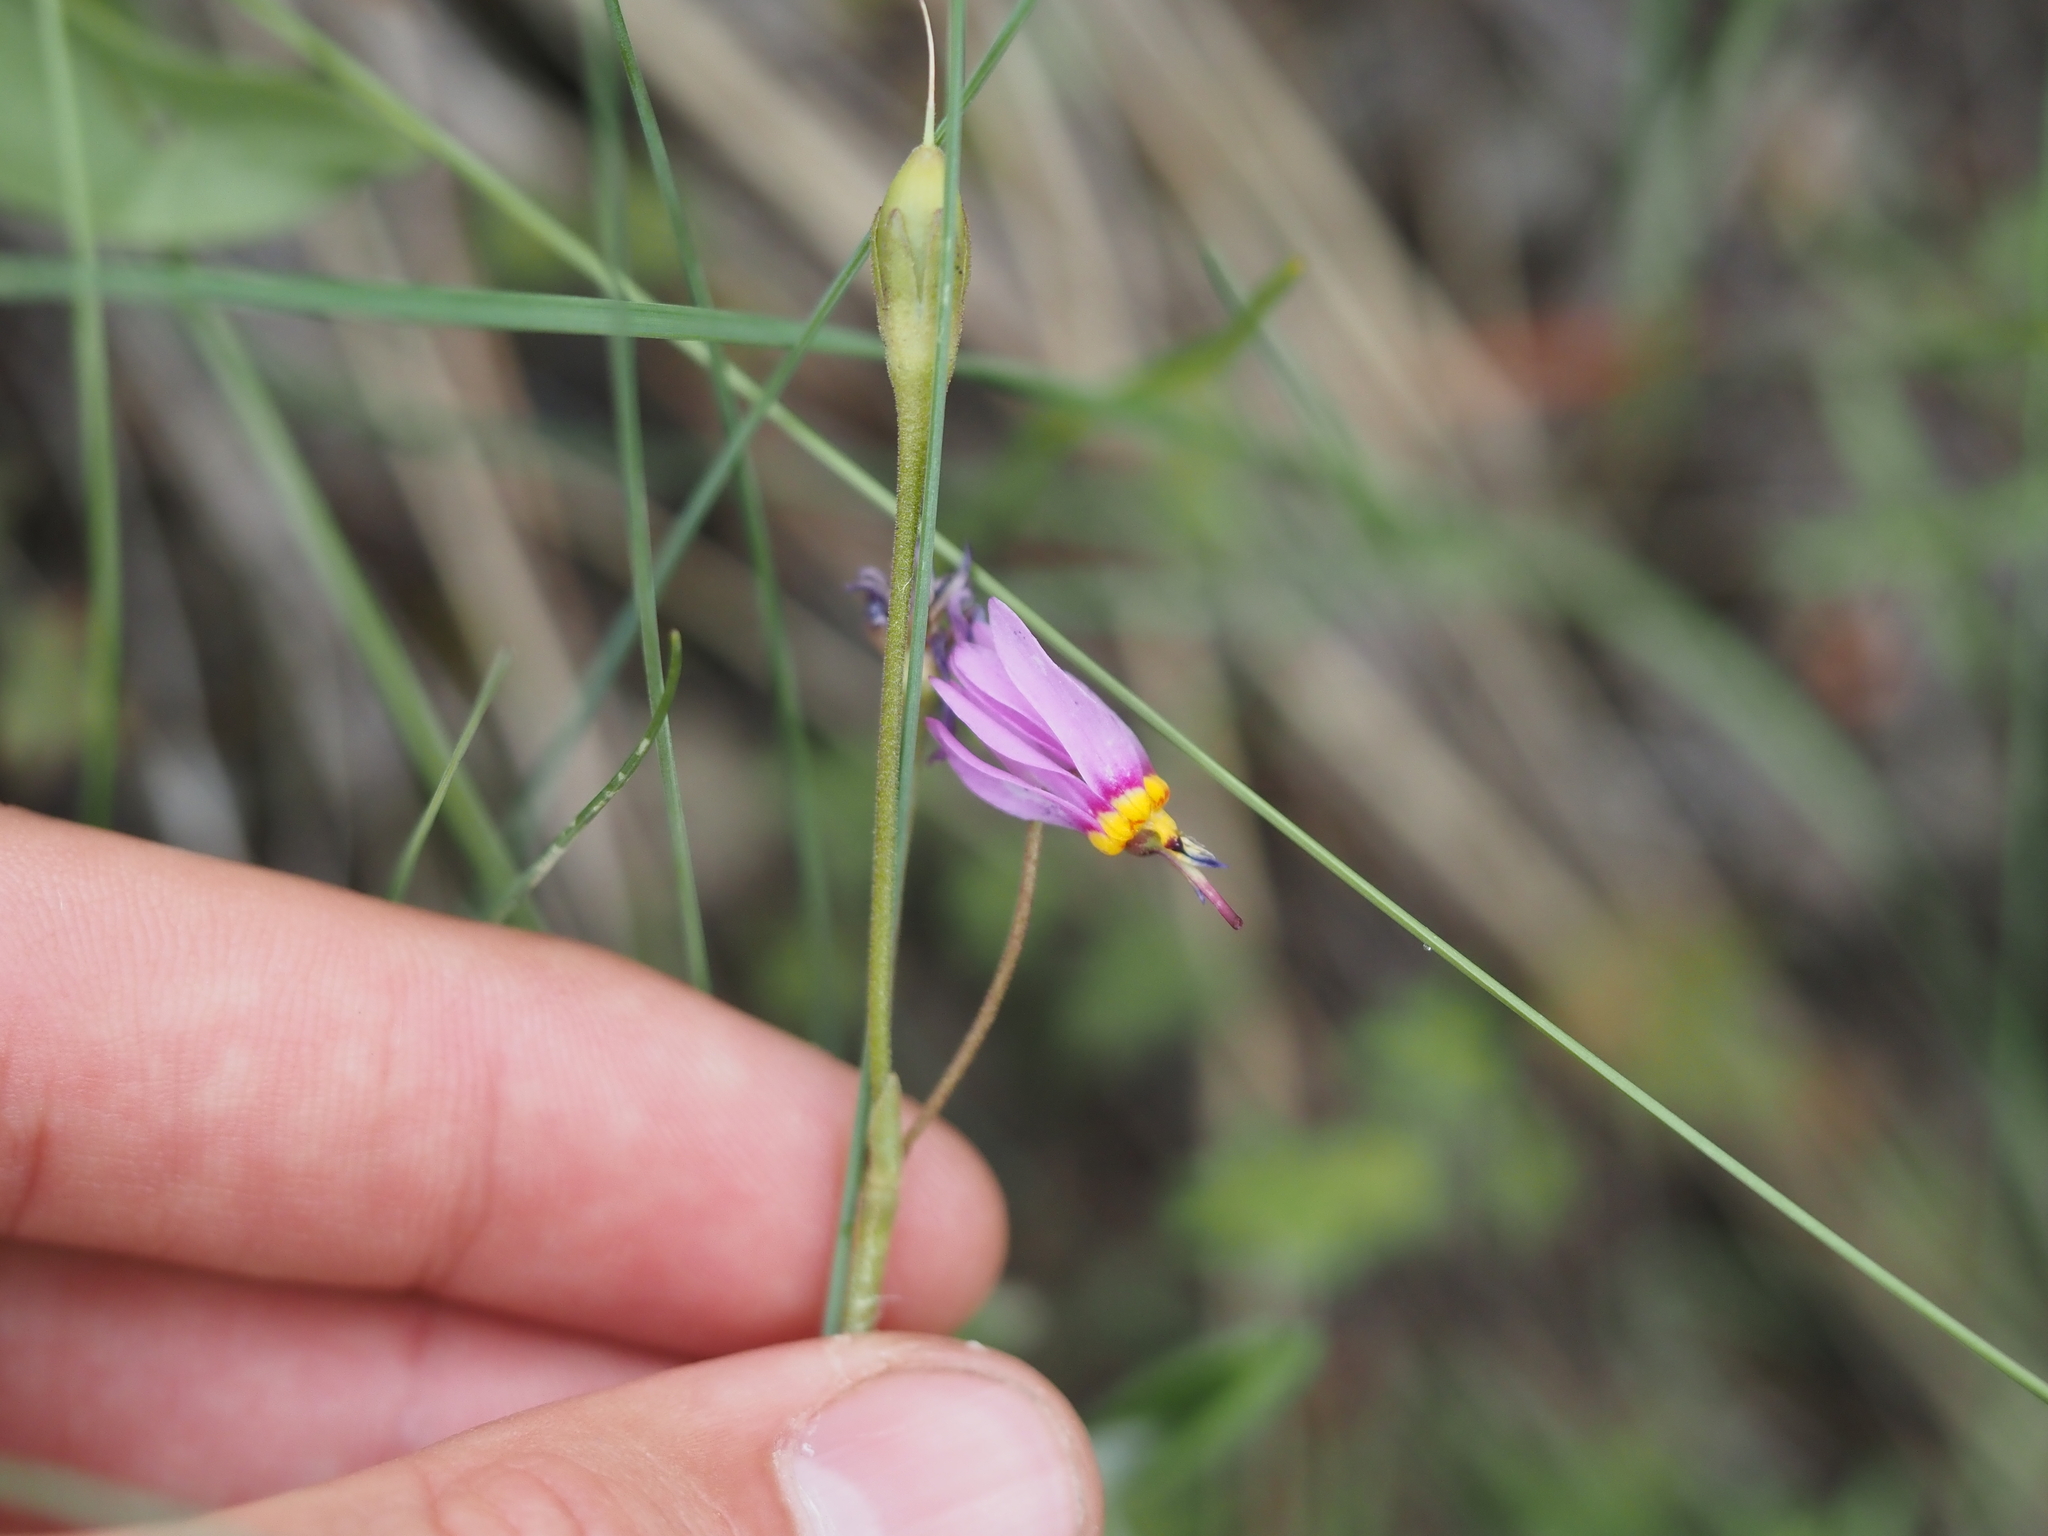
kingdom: Plantae
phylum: Tracheophyta
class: Magnoliopsida
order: Ericales
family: Primulaceae
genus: Dodecatheon
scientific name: Dodecatheon pulchellum
